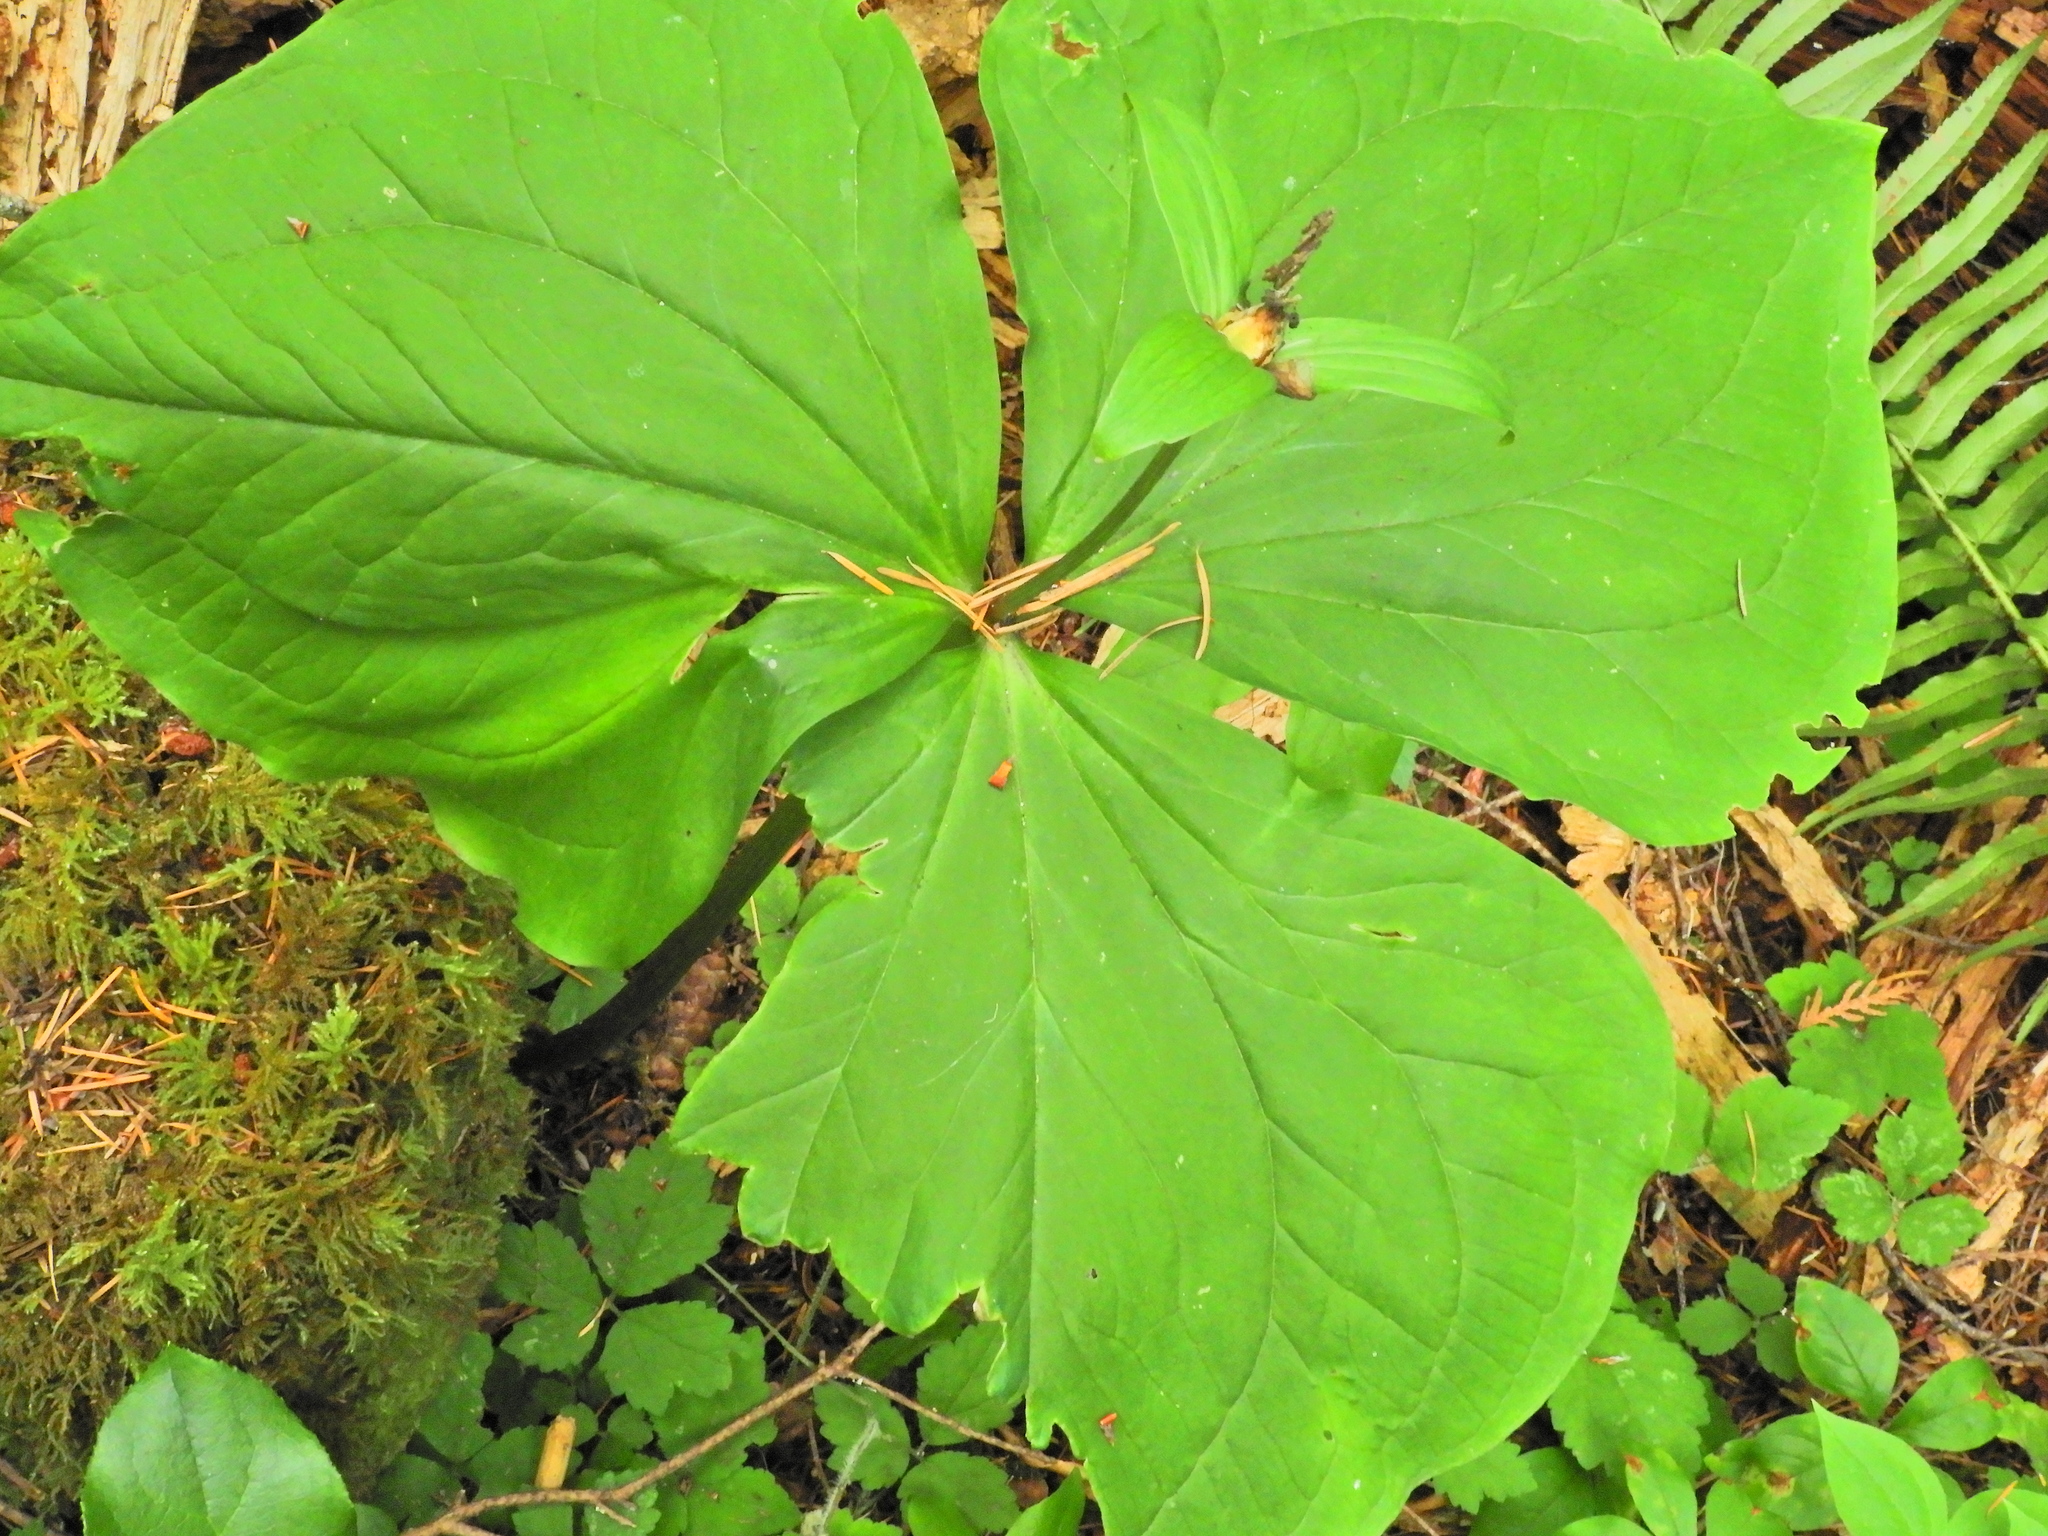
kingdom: Plantae
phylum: Tracheophyta
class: Liliopsida
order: Liliales
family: Melanthiaceae
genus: Trillium
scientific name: Trillium ovatum
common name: Pacific trillium
